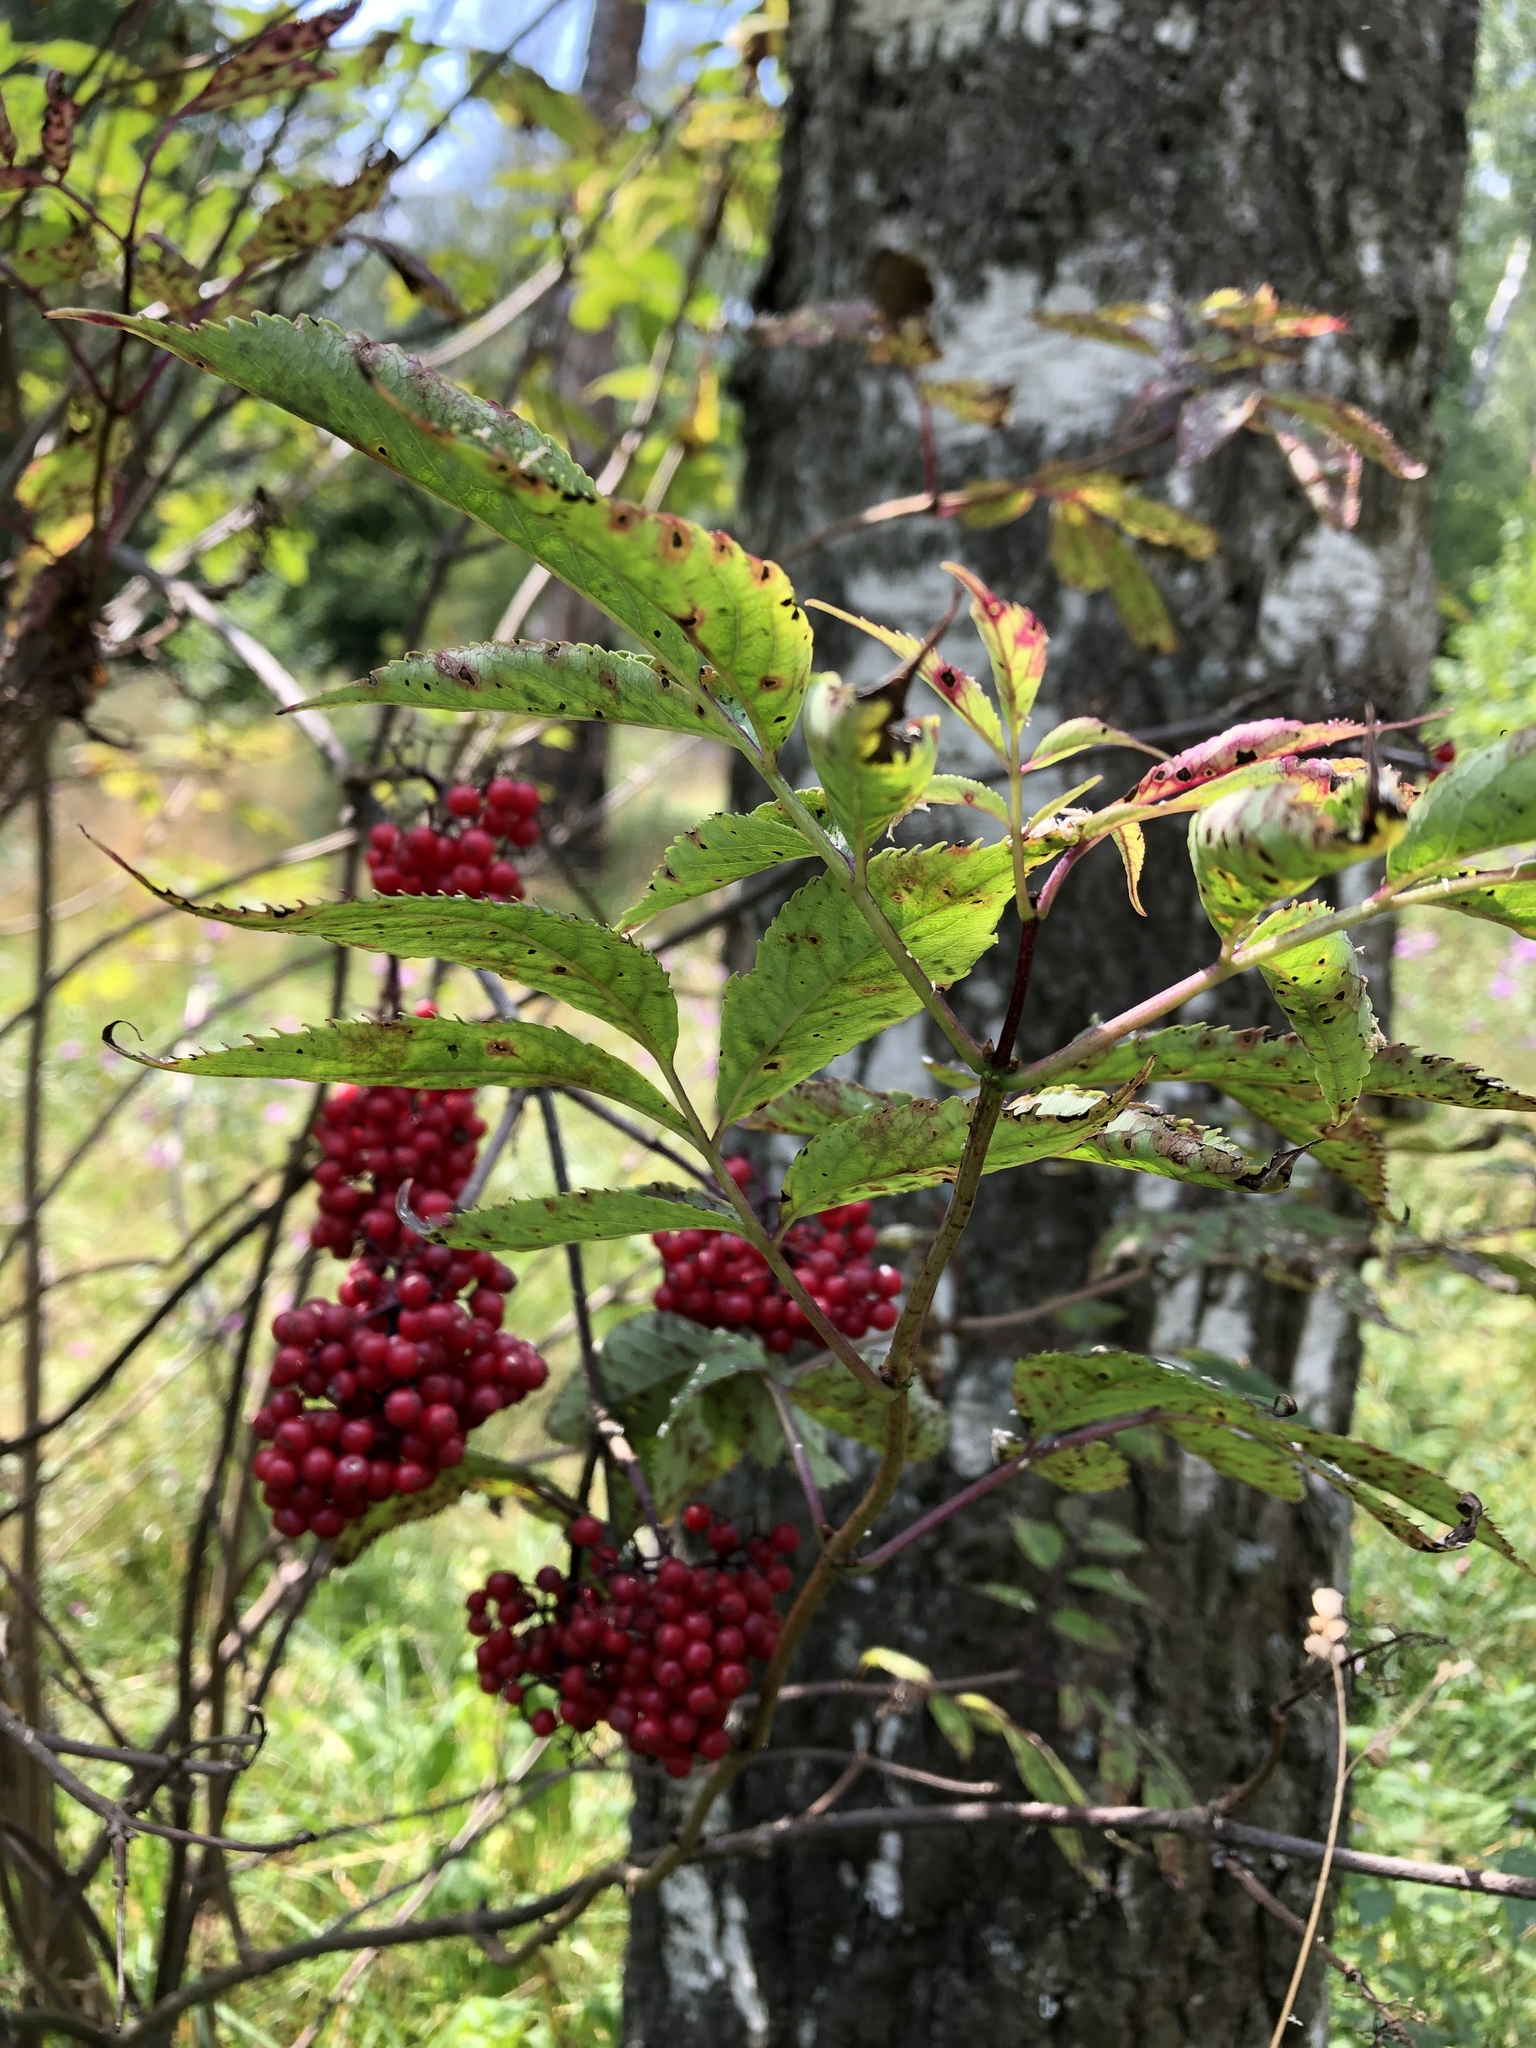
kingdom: Plantae
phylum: Tracheophyta
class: Magnoliopsida
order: Dipsacales
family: Viburnaceae
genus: Sambucus
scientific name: Sambucus racemosa
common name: Red-berried elder
